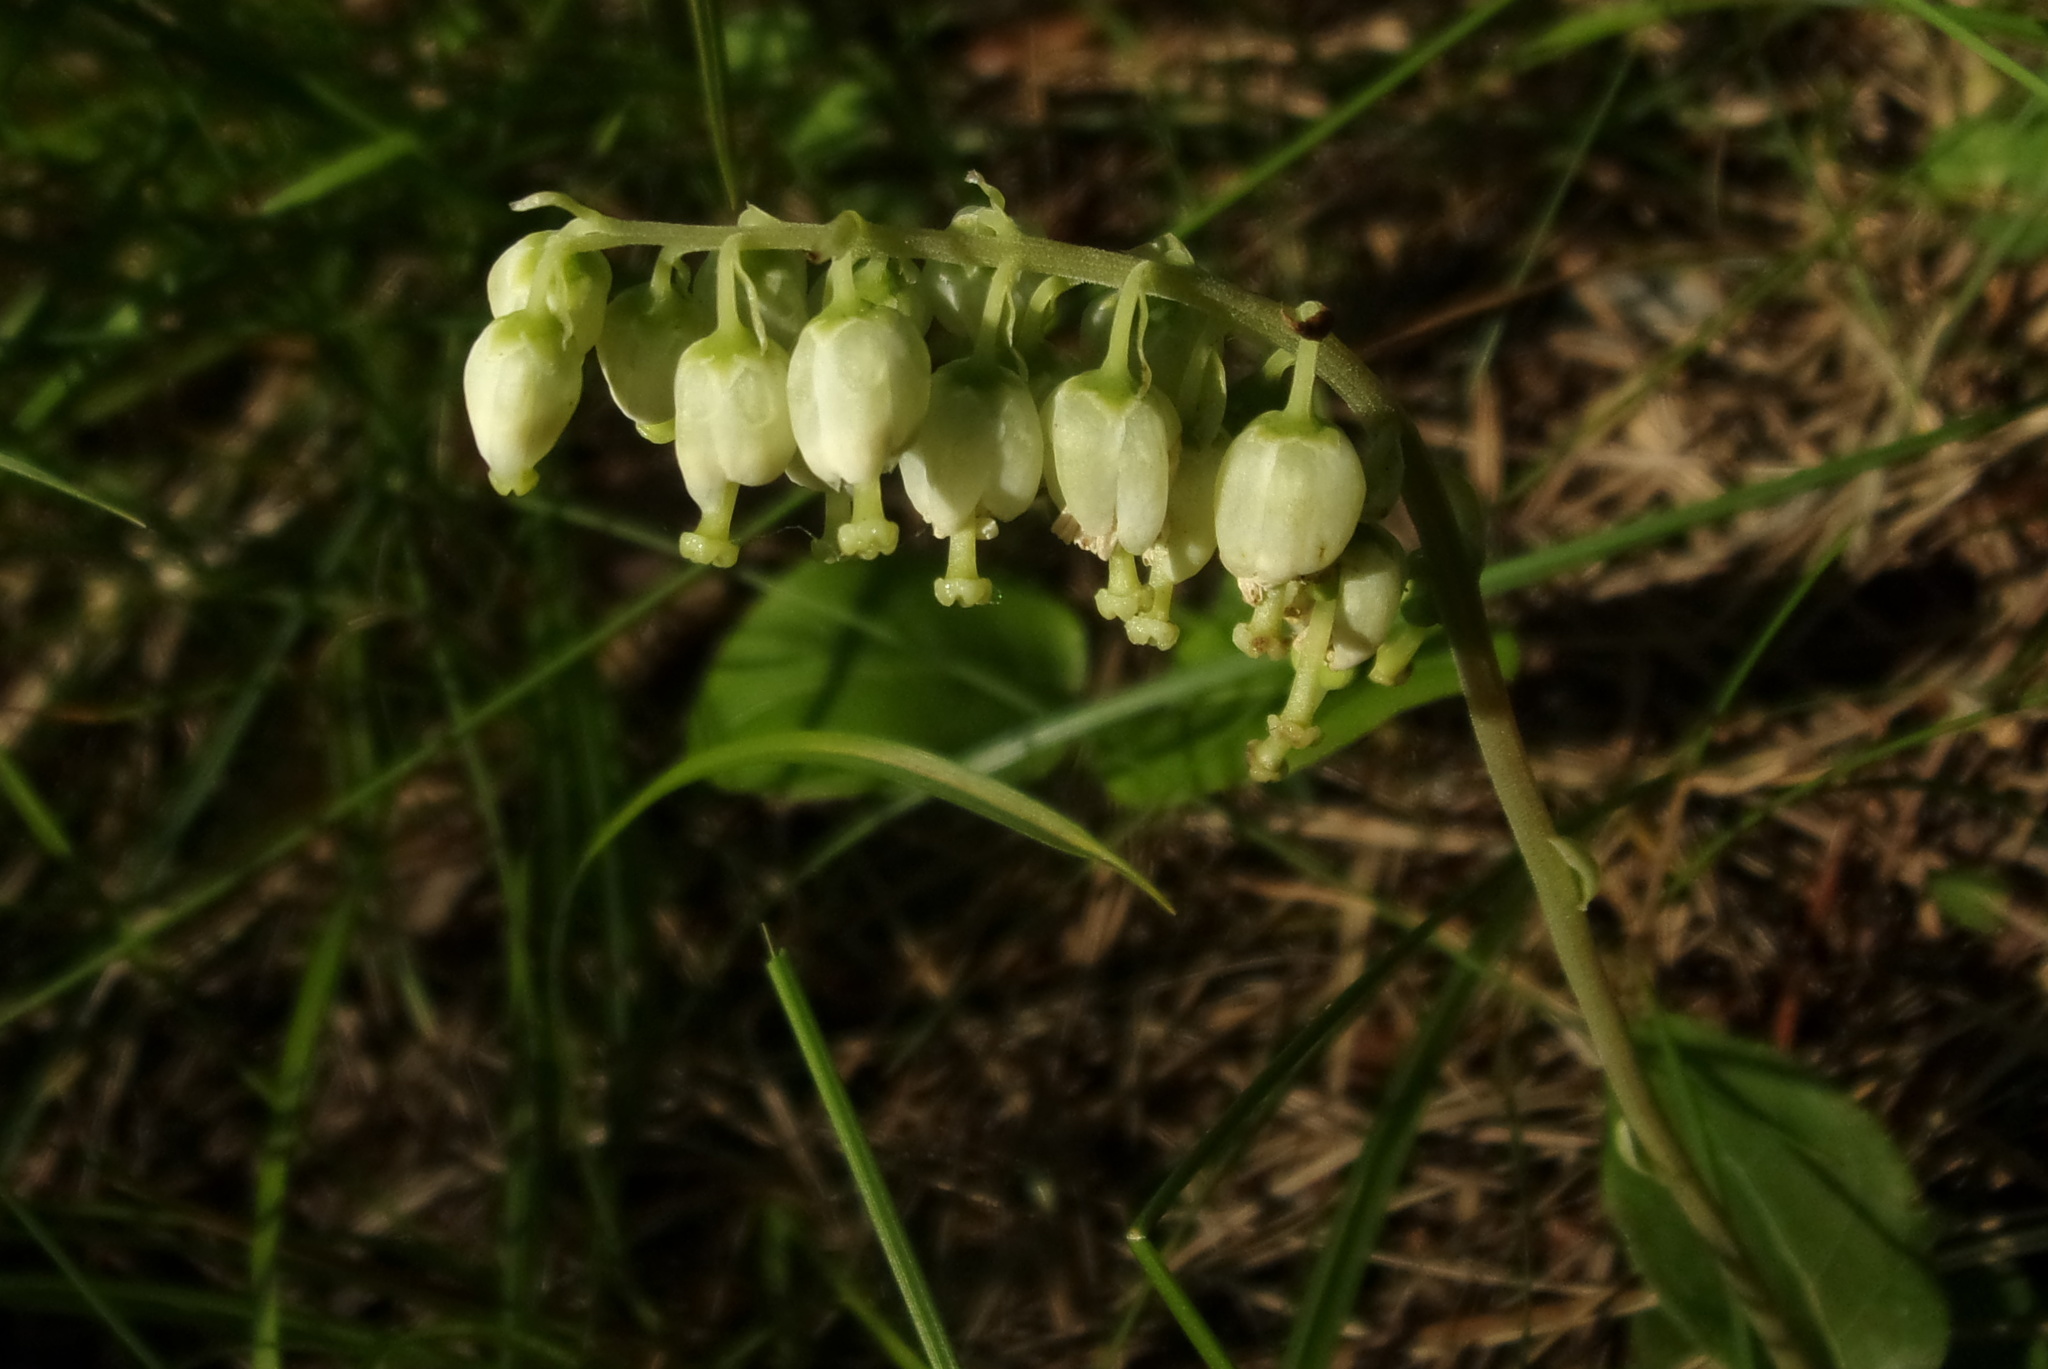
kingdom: Plantae
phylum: Tracheophyta
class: Magnoliopsida
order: Ericales
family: Ericaceae
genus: Orthilia
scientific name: Orthilia secunda
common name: One-sided orthilia
